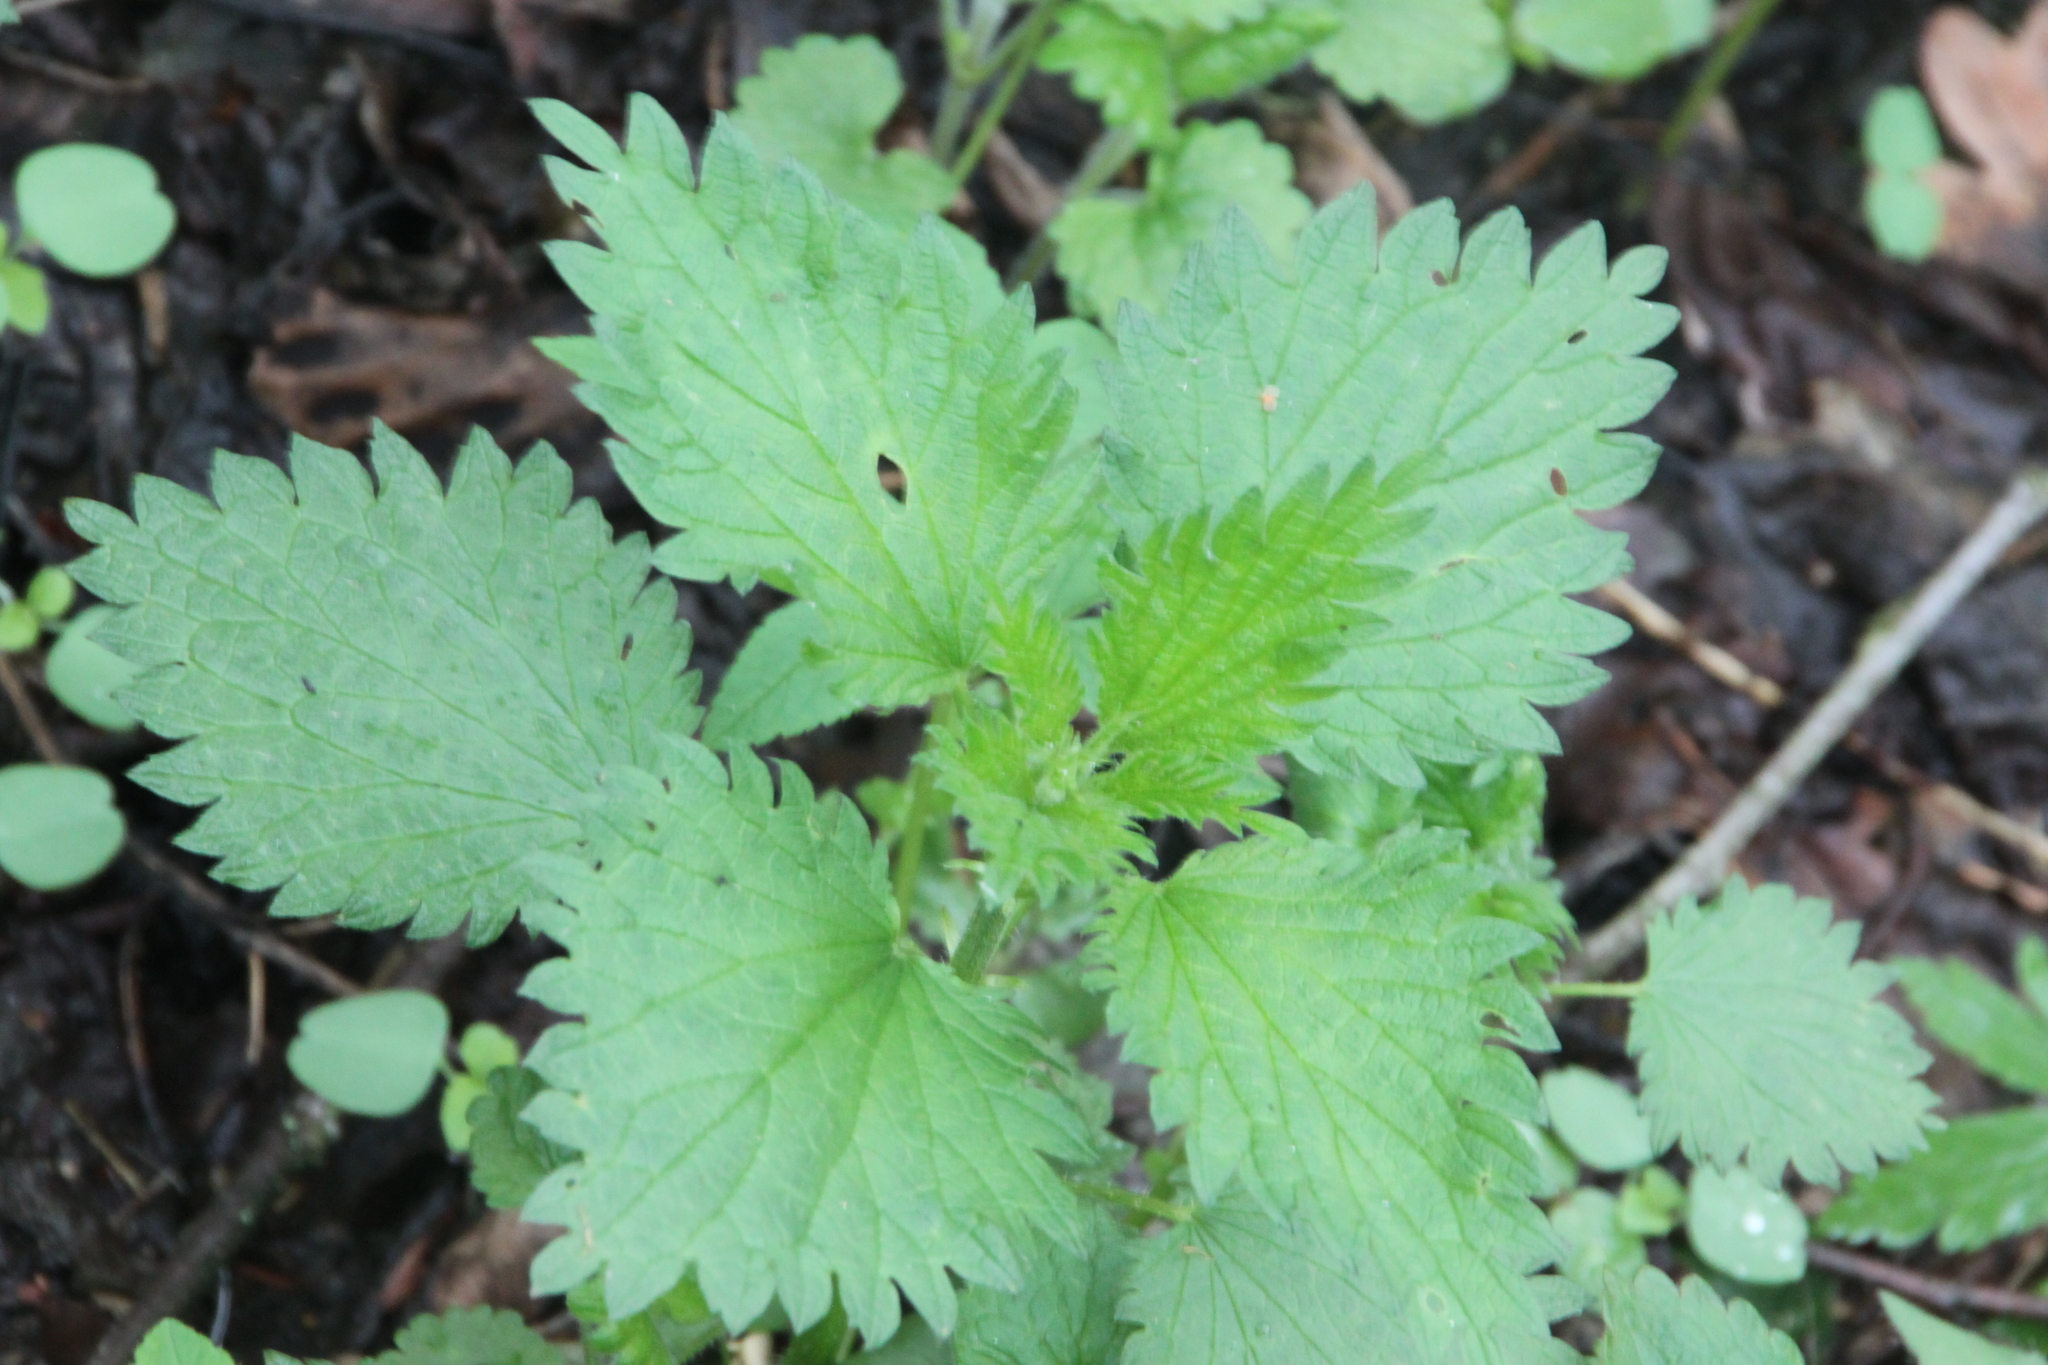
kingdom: Plantae
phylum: Tracheophyta
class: Magnoliopsida
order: Rosales
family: Urticaceae
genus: Urtica
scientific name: Urtica dioica
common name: Common nettle
